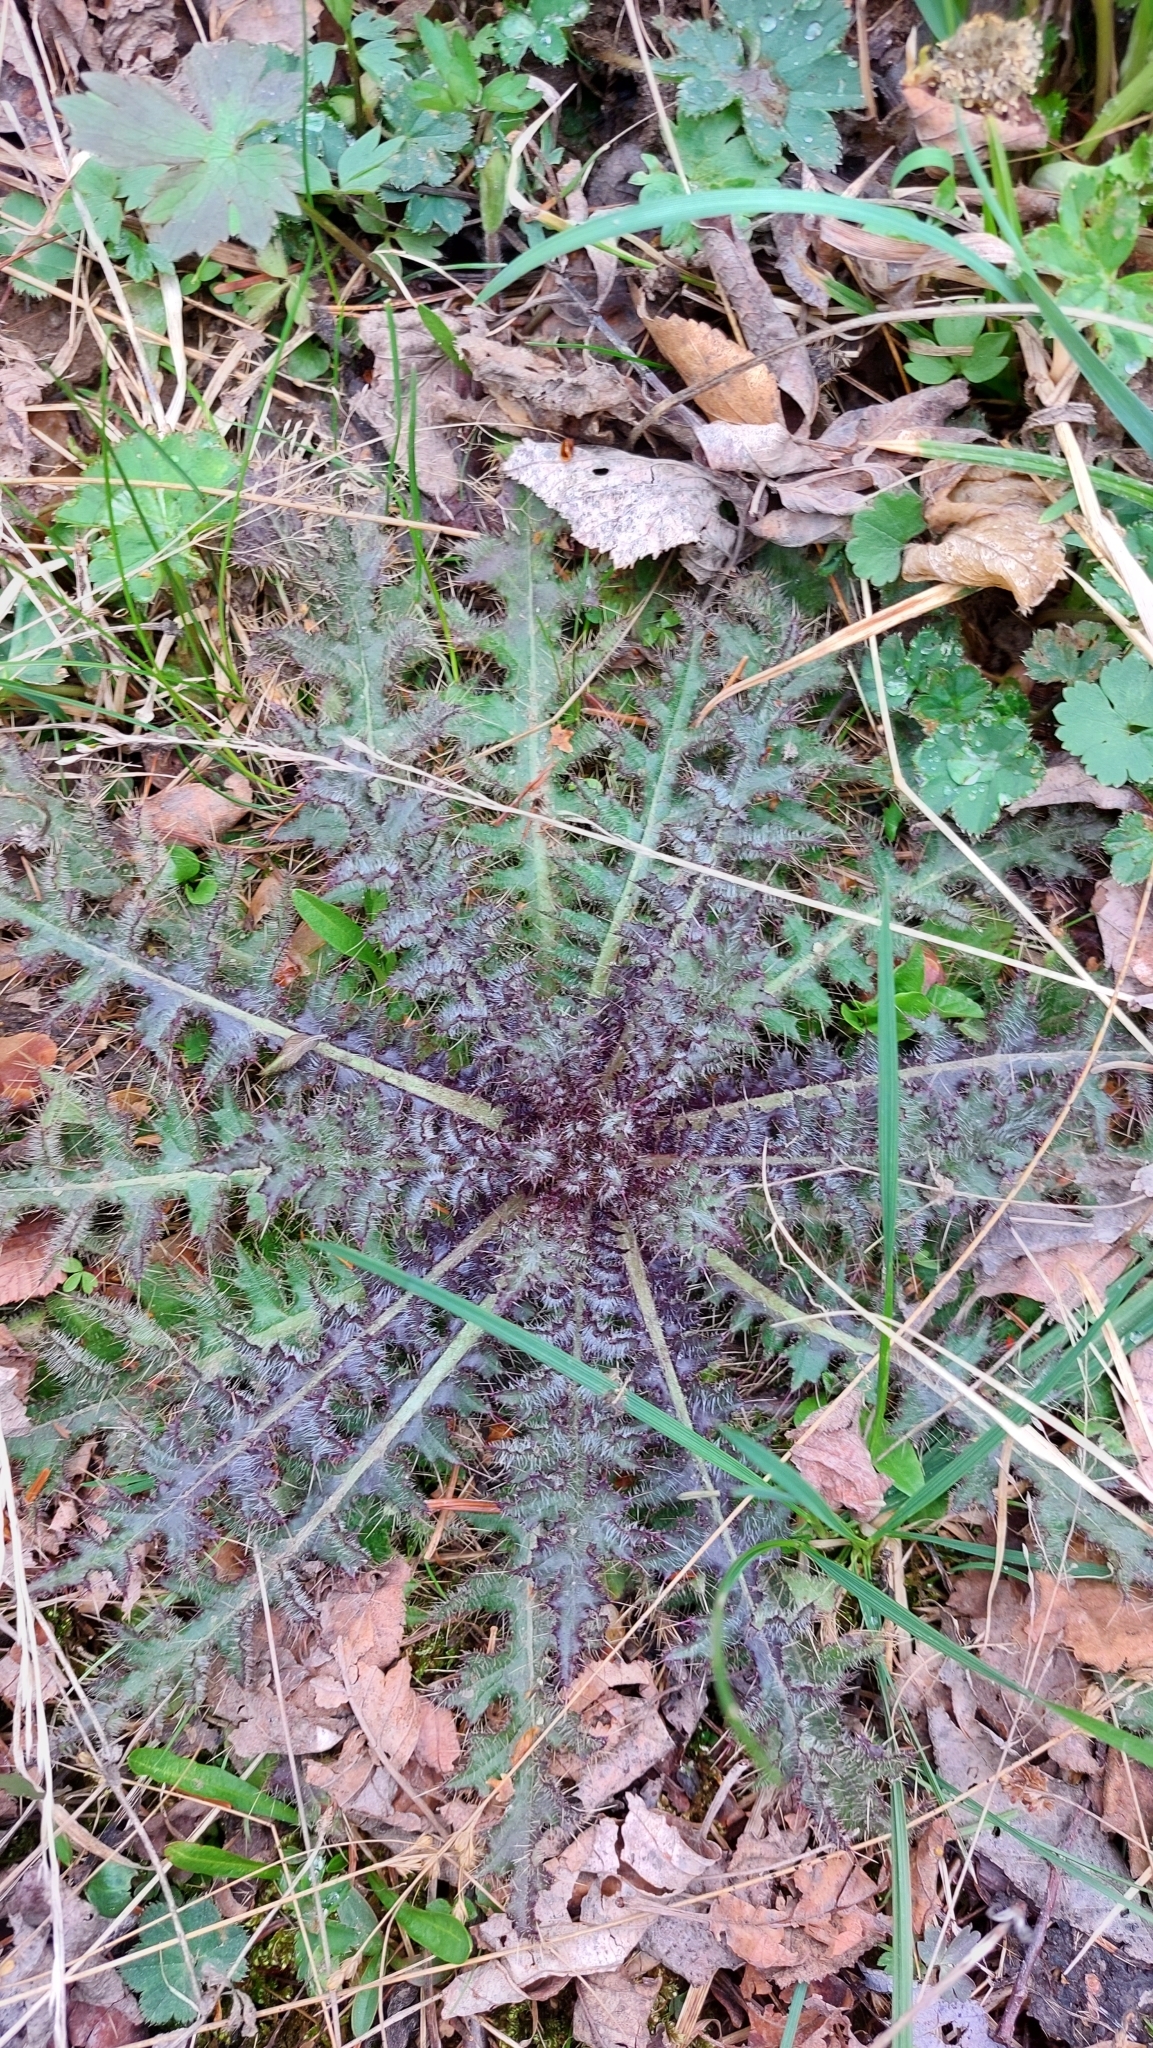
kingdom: Plantae
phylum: Tracheophyta
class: Magnoliopsida
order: Asterales
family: Asteraceae
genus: Cirsium
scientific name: Cirsium palustre
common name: Marsh thistle
